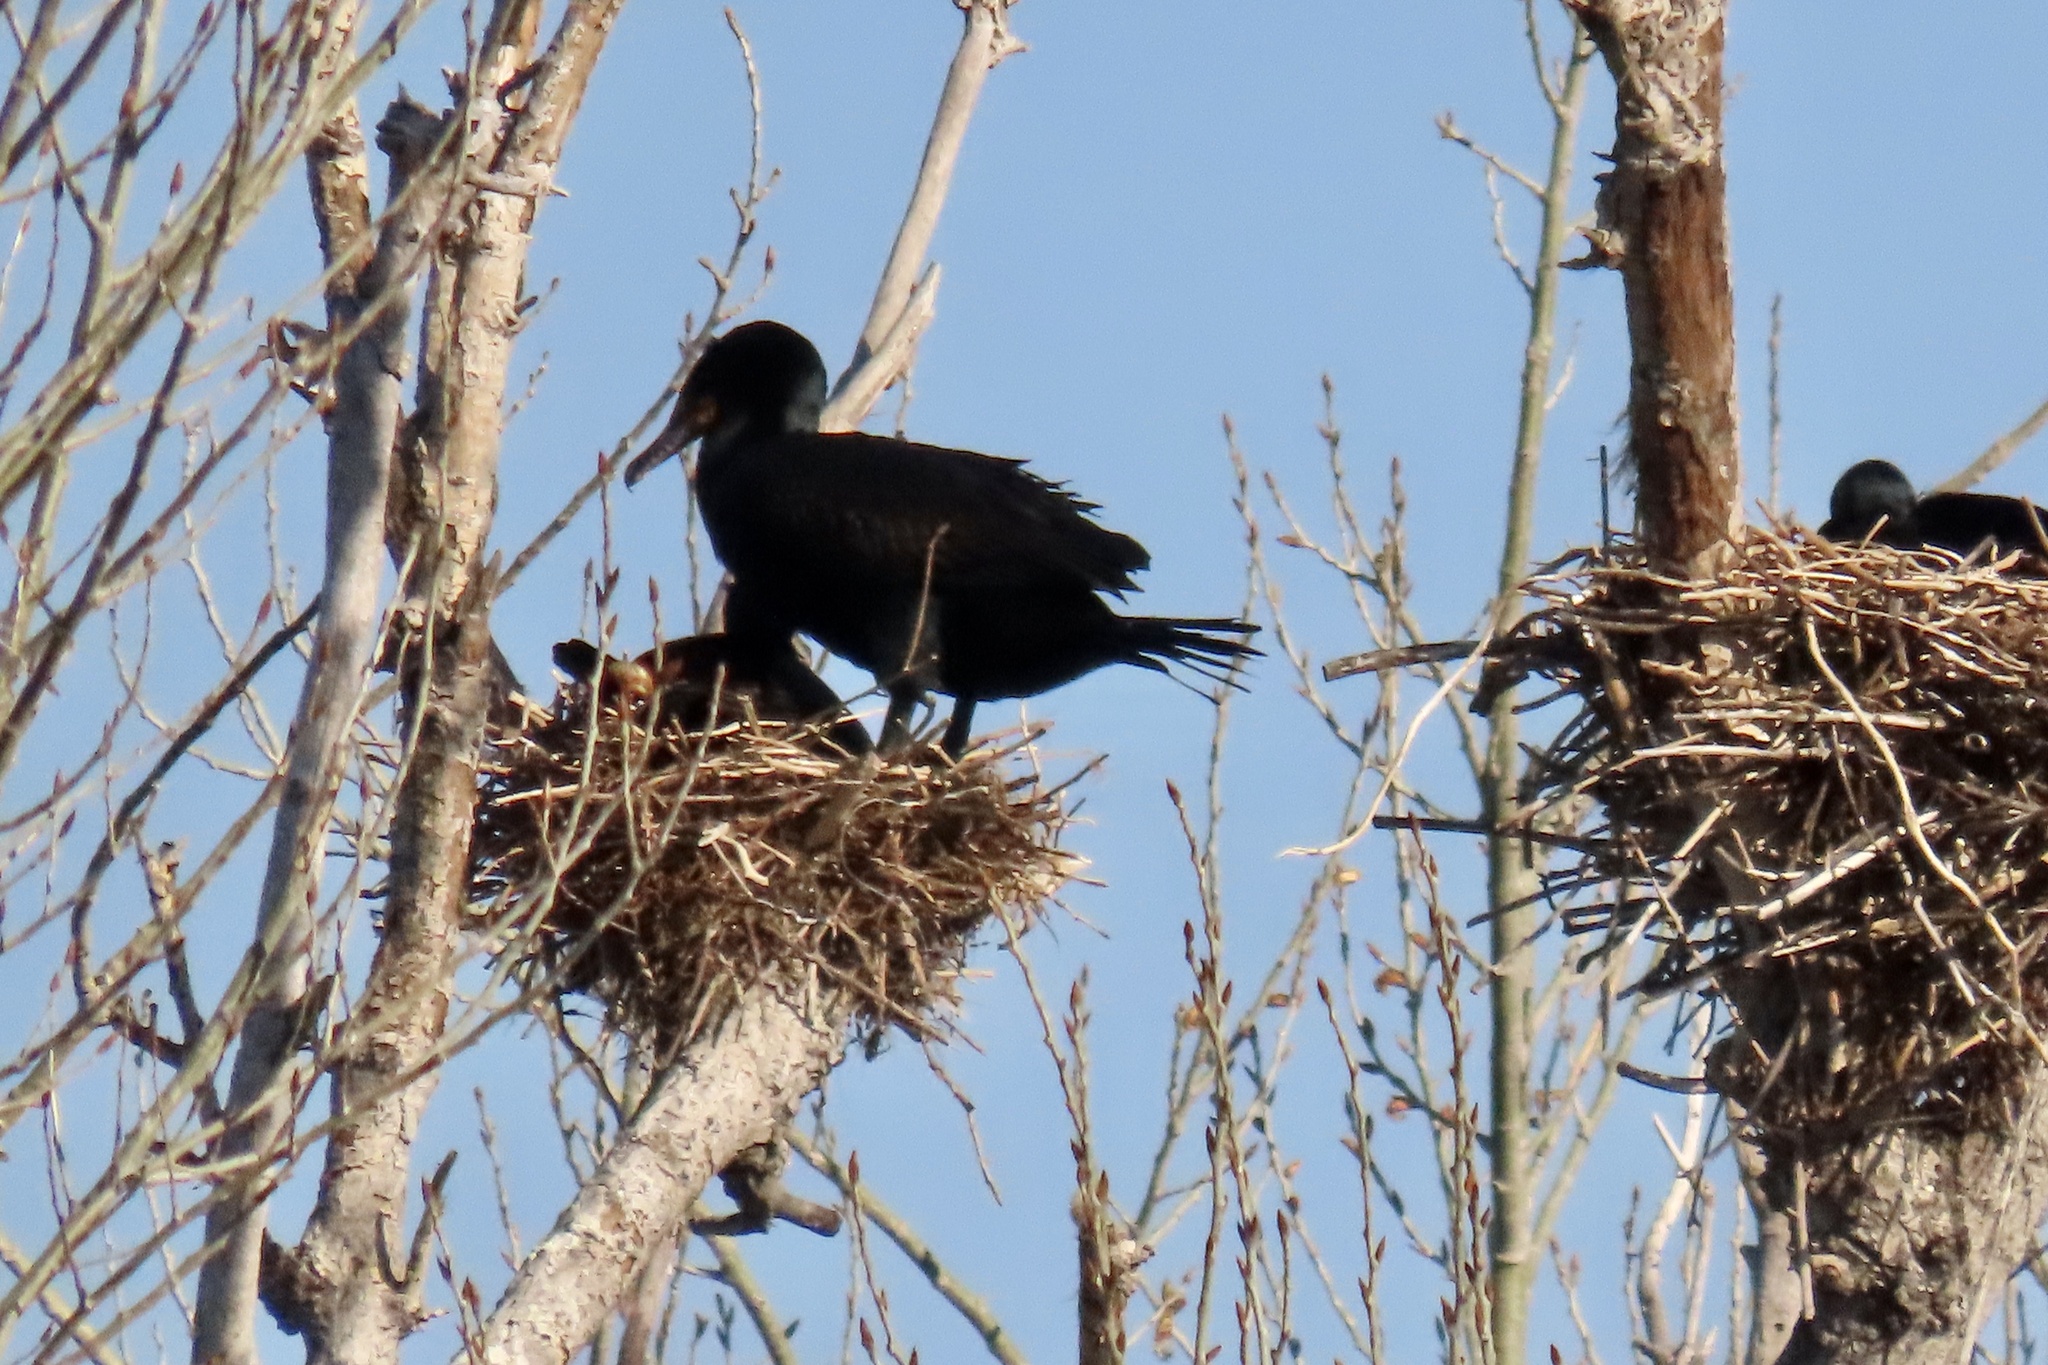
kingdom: Animalia
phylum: Chordata
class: Aves
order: Suliformes
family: Phalacrocoracidae
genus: Phalacrocorax
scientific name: Phalacrocorax auritus
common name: Double-crested cormorant
